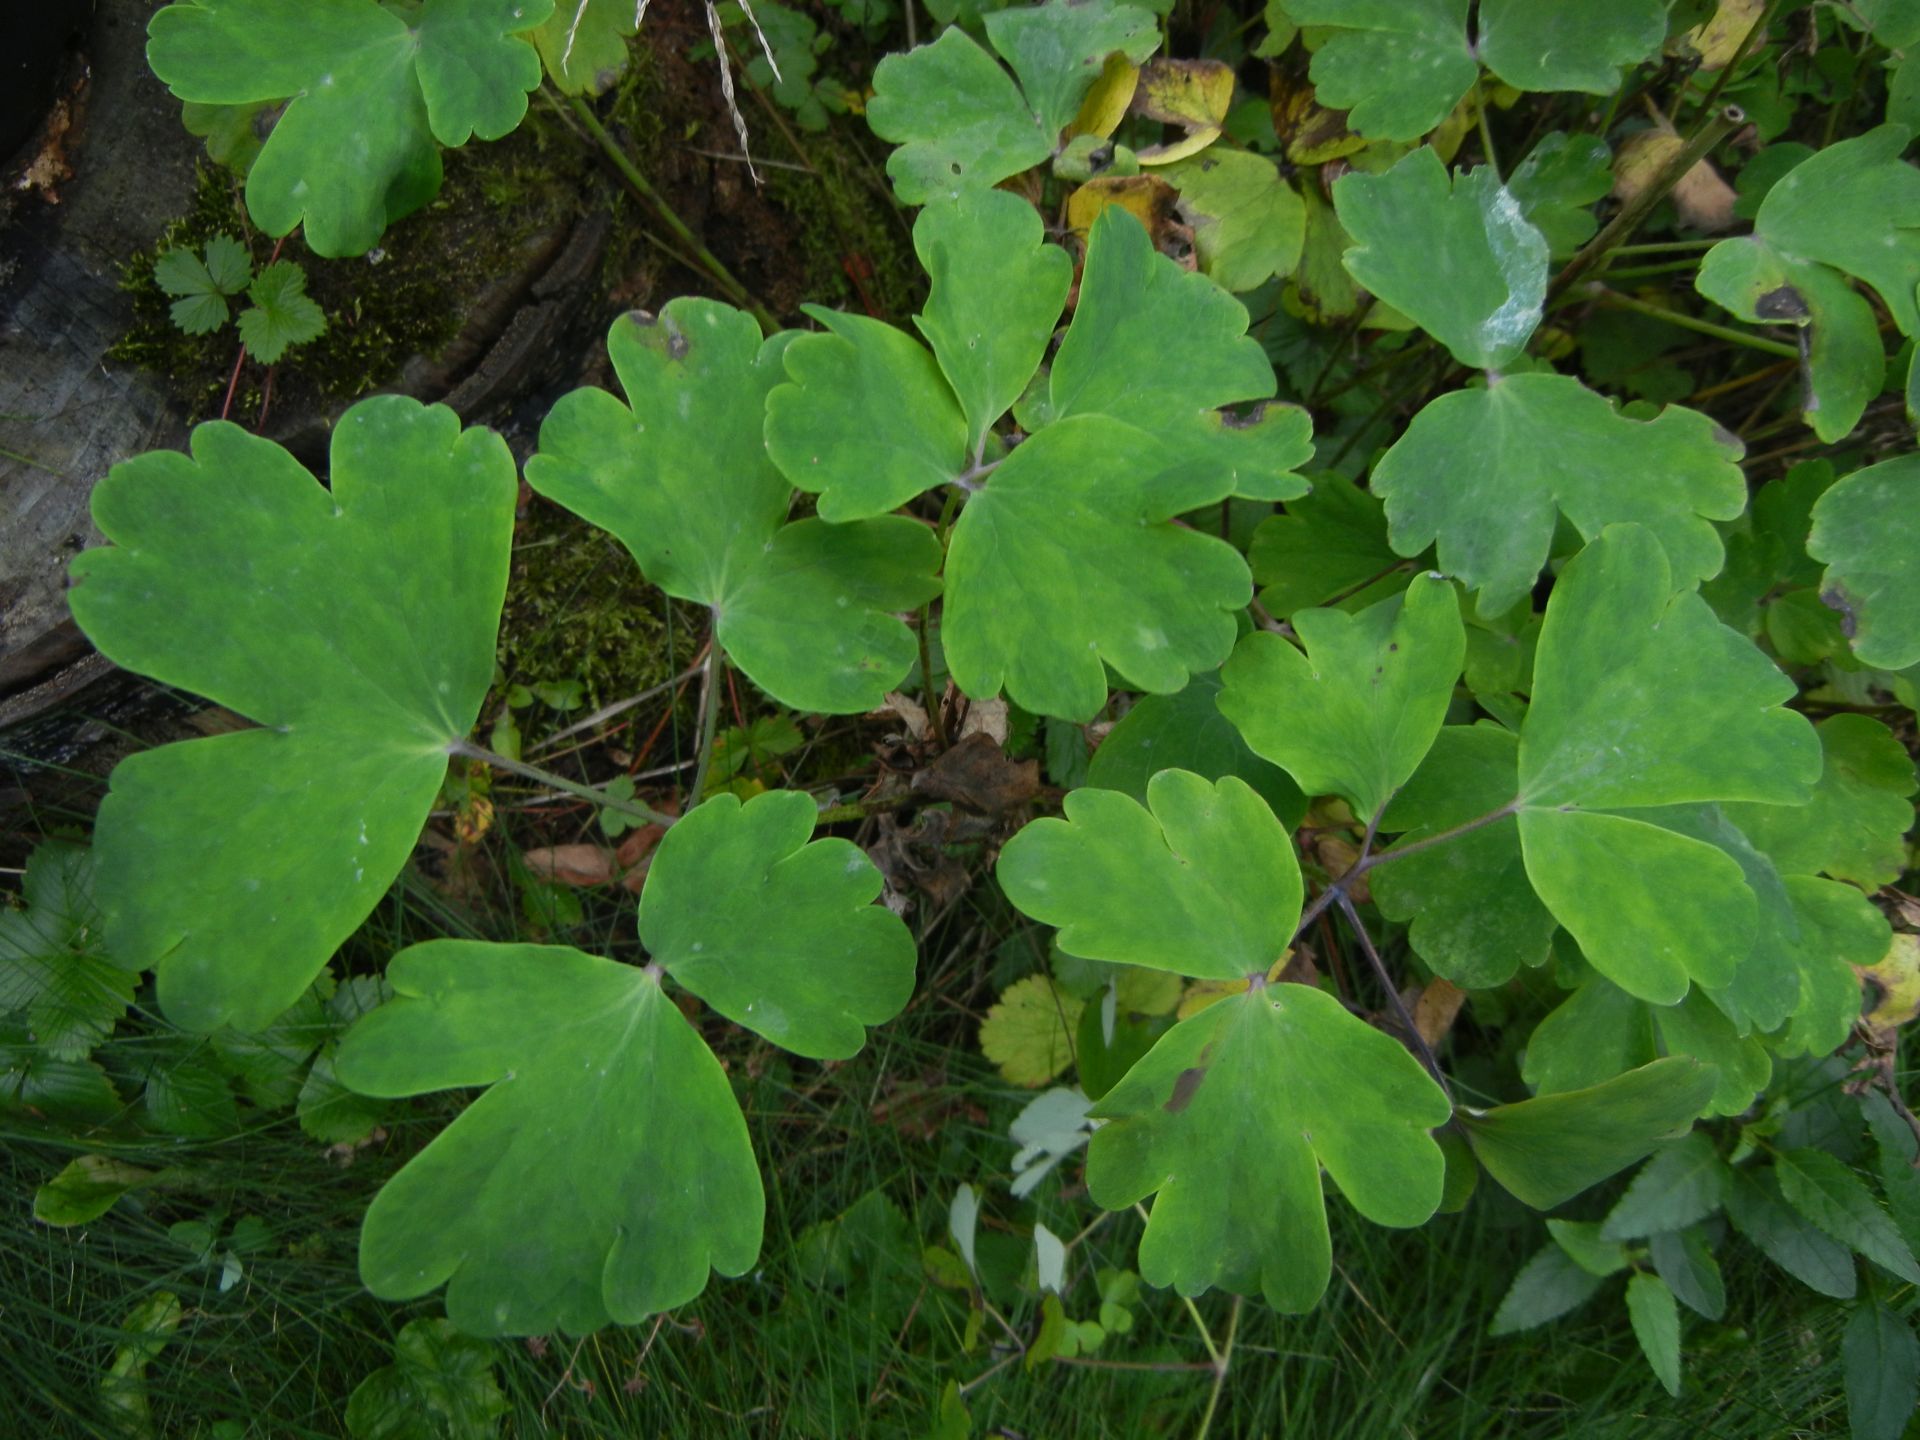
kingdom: Plantae
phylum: Tracheophyta
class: Magnoliopsida
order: Ranunculales
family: Ranunculaceae
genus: Aquilegia
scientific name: Aquilegia vulgaris
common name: Columbine
